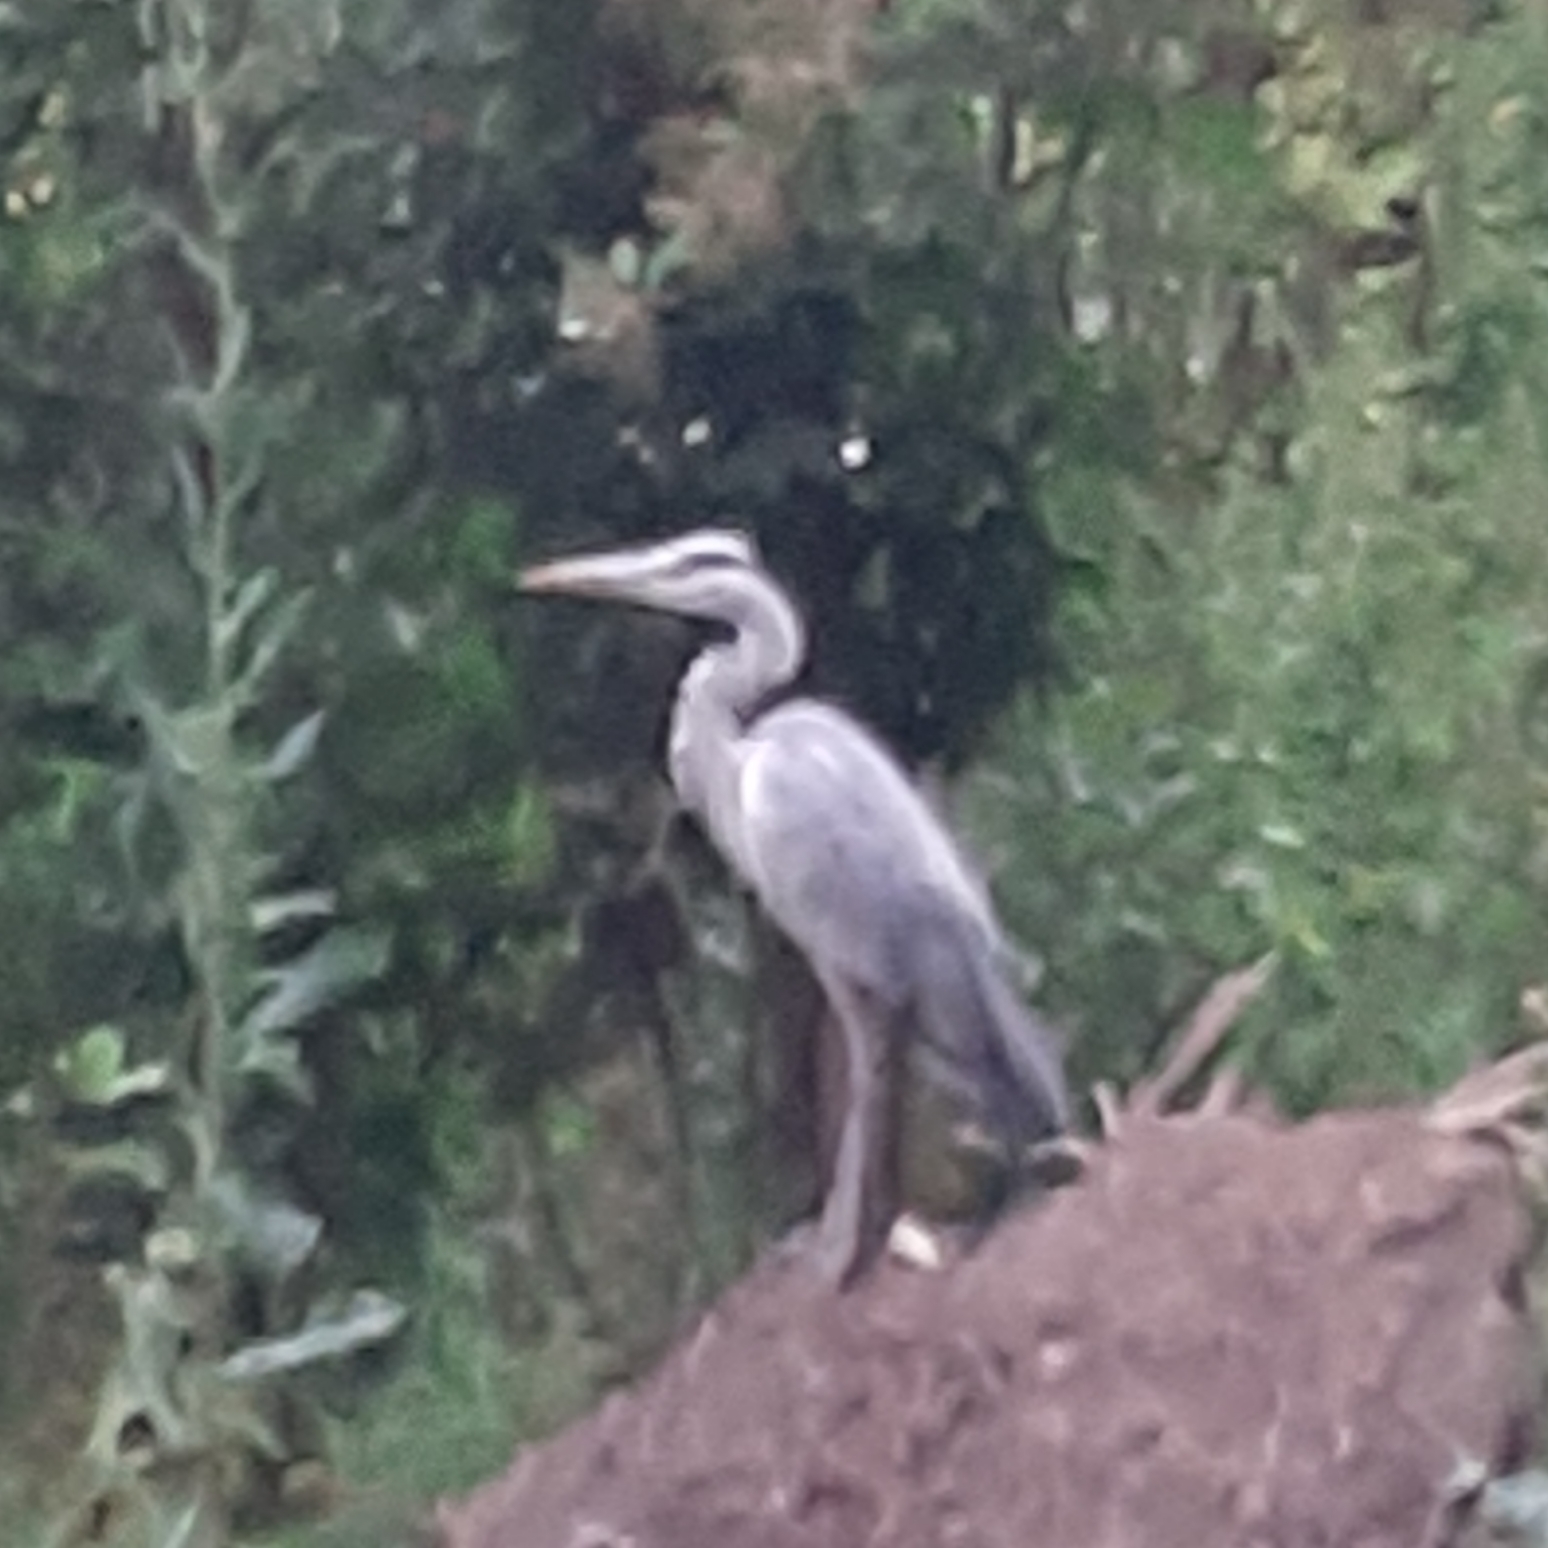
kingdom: Animalia
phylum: Chordata
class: Aves
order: Pelecaniformes
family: Ardeidae
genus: Ardea
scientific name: Ardea cinerea
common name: Grey heron
